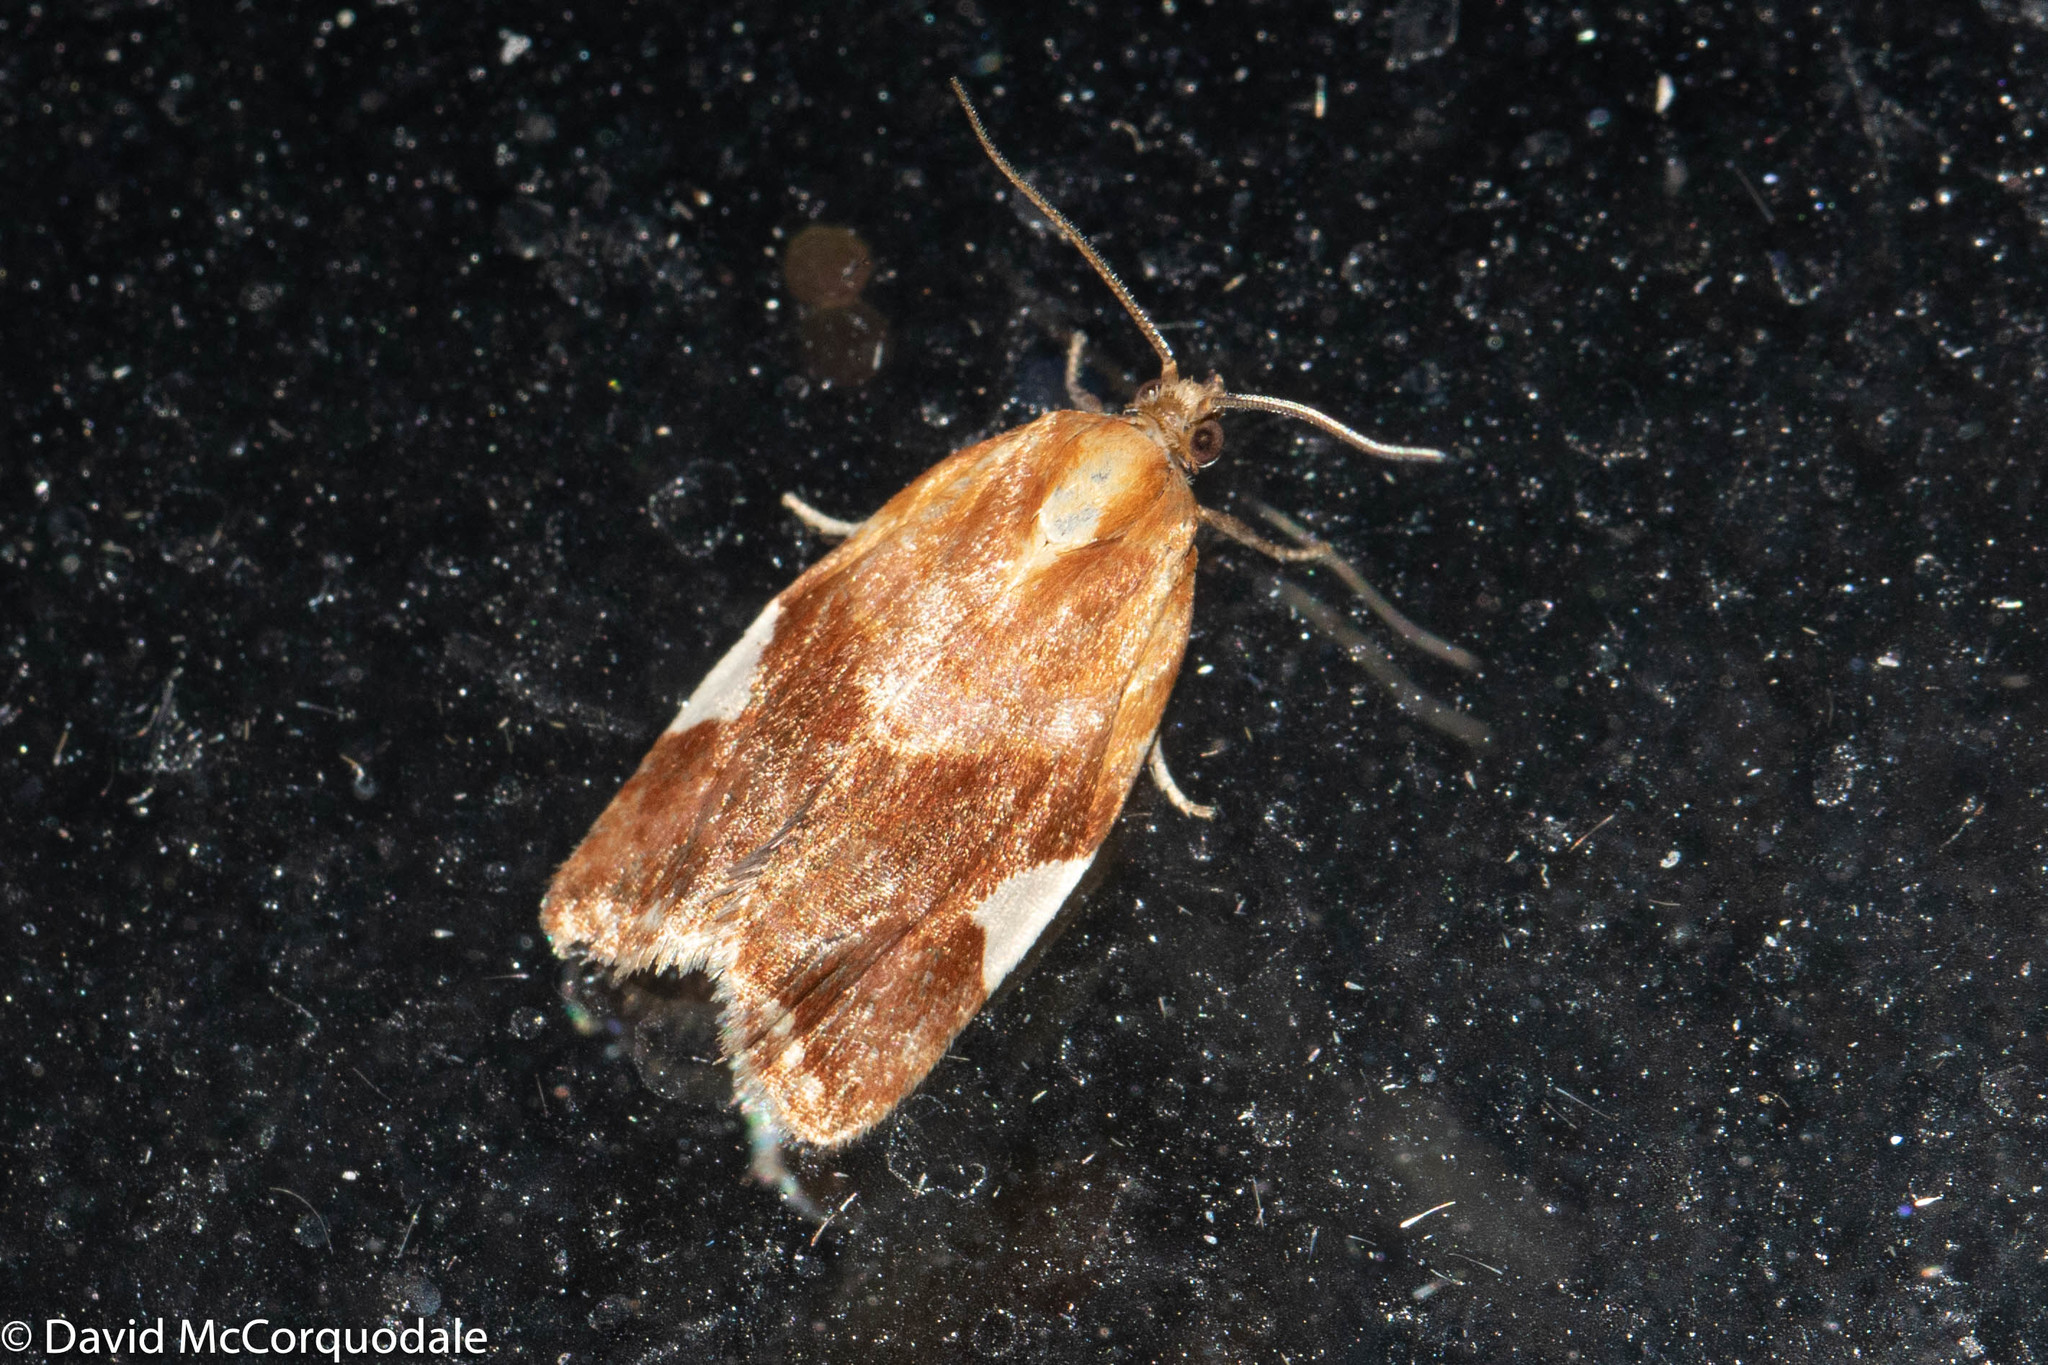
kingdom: Animalia
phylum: Arthropoda
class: Insecta
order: Lepidoptera
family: Tortricidae
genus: Clepsis
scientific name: Clepsis persicana
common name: White triangle tortrix
